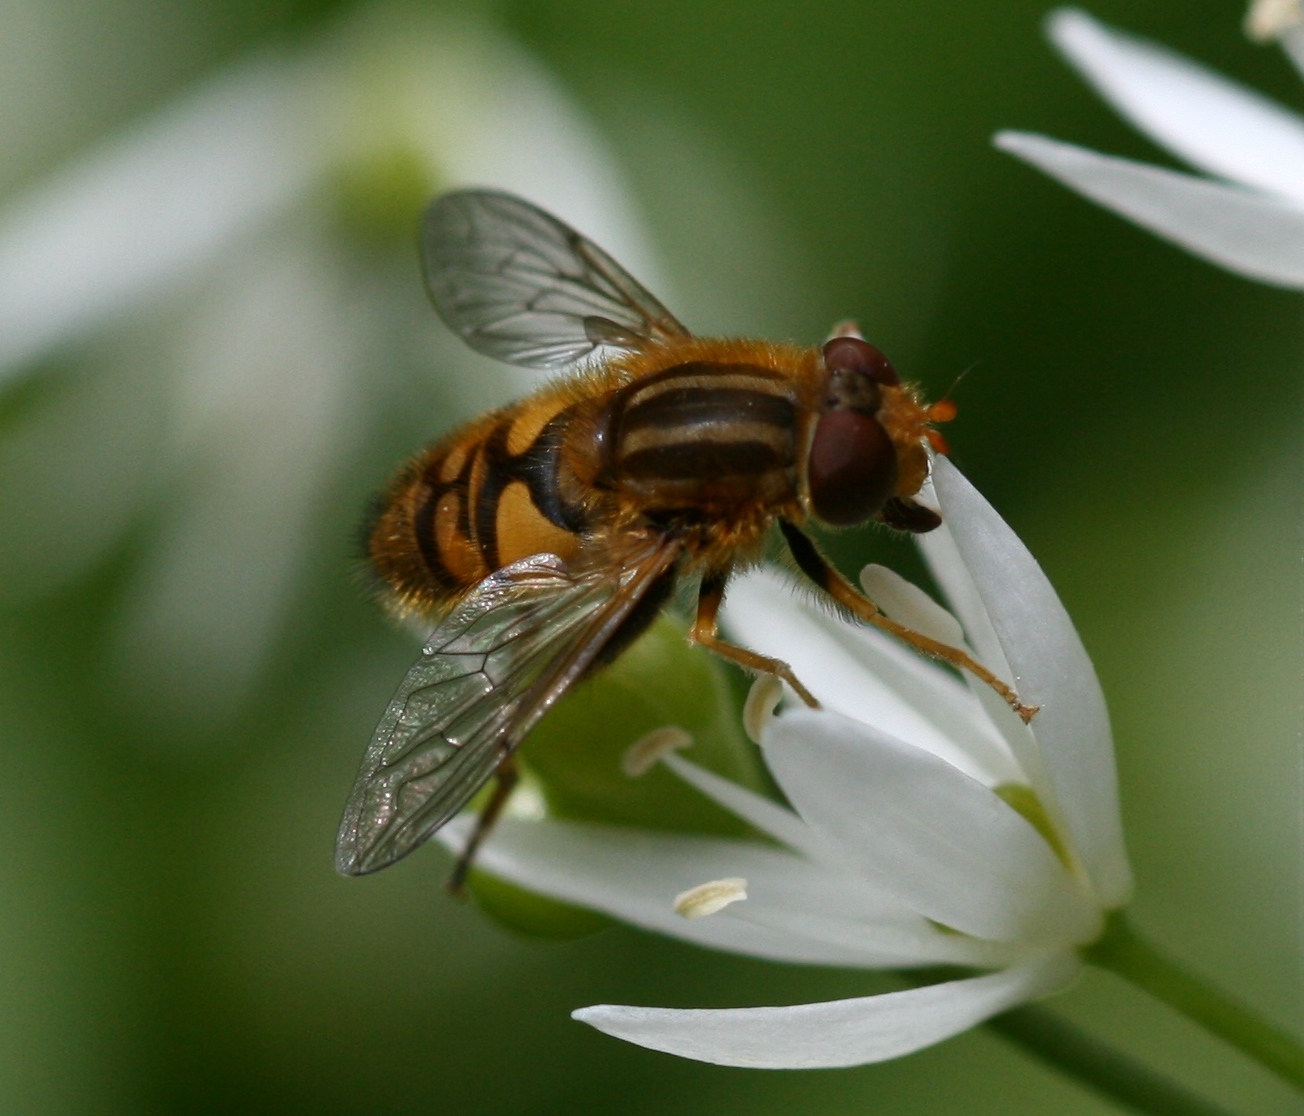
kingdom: Animalia
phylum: Arthropoda
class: Insecta
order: Diptera
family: Syrphidae
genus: Parhelophilus
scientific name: Parhelophilus
